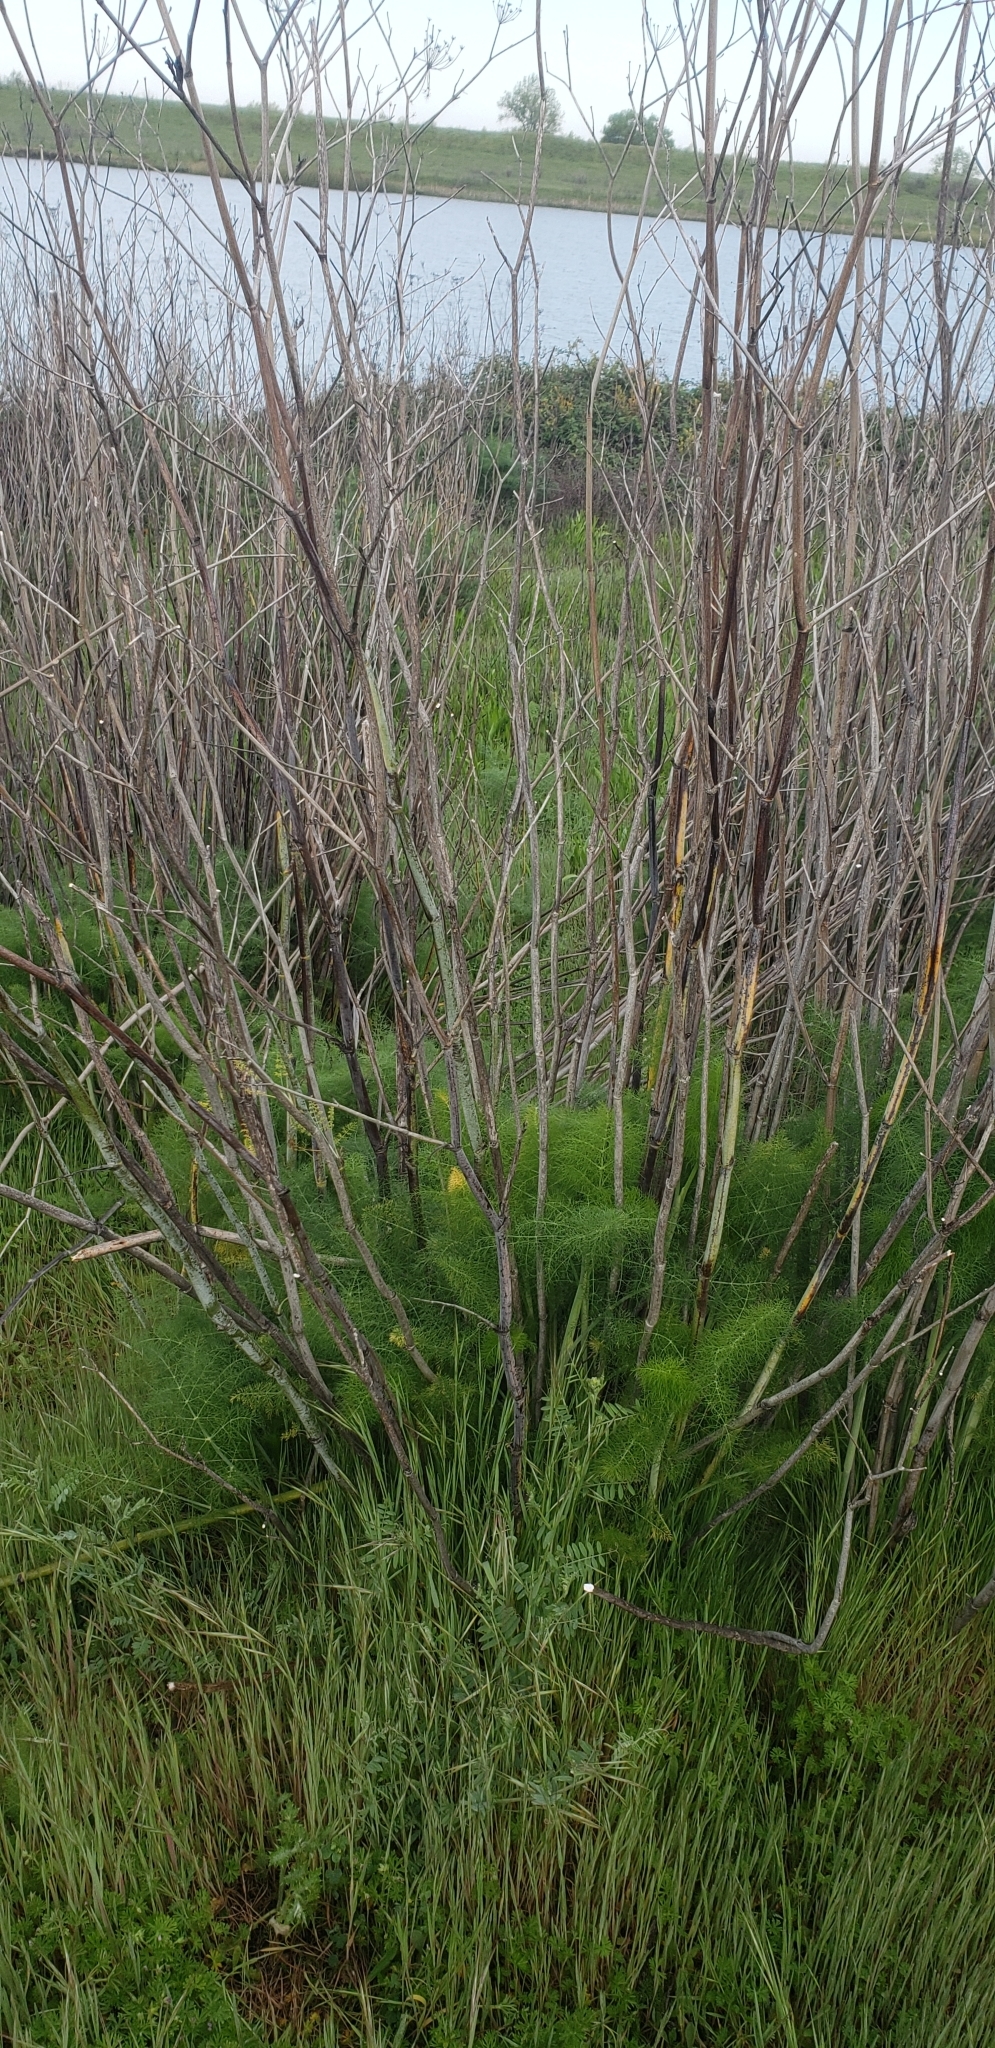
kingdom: Plantae
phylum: Tracheophyta
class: Magnoliopsida
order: Apiales
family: Apiaceae
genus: Foeniculum
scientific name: Foeniculum vulgare
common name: Fennel
